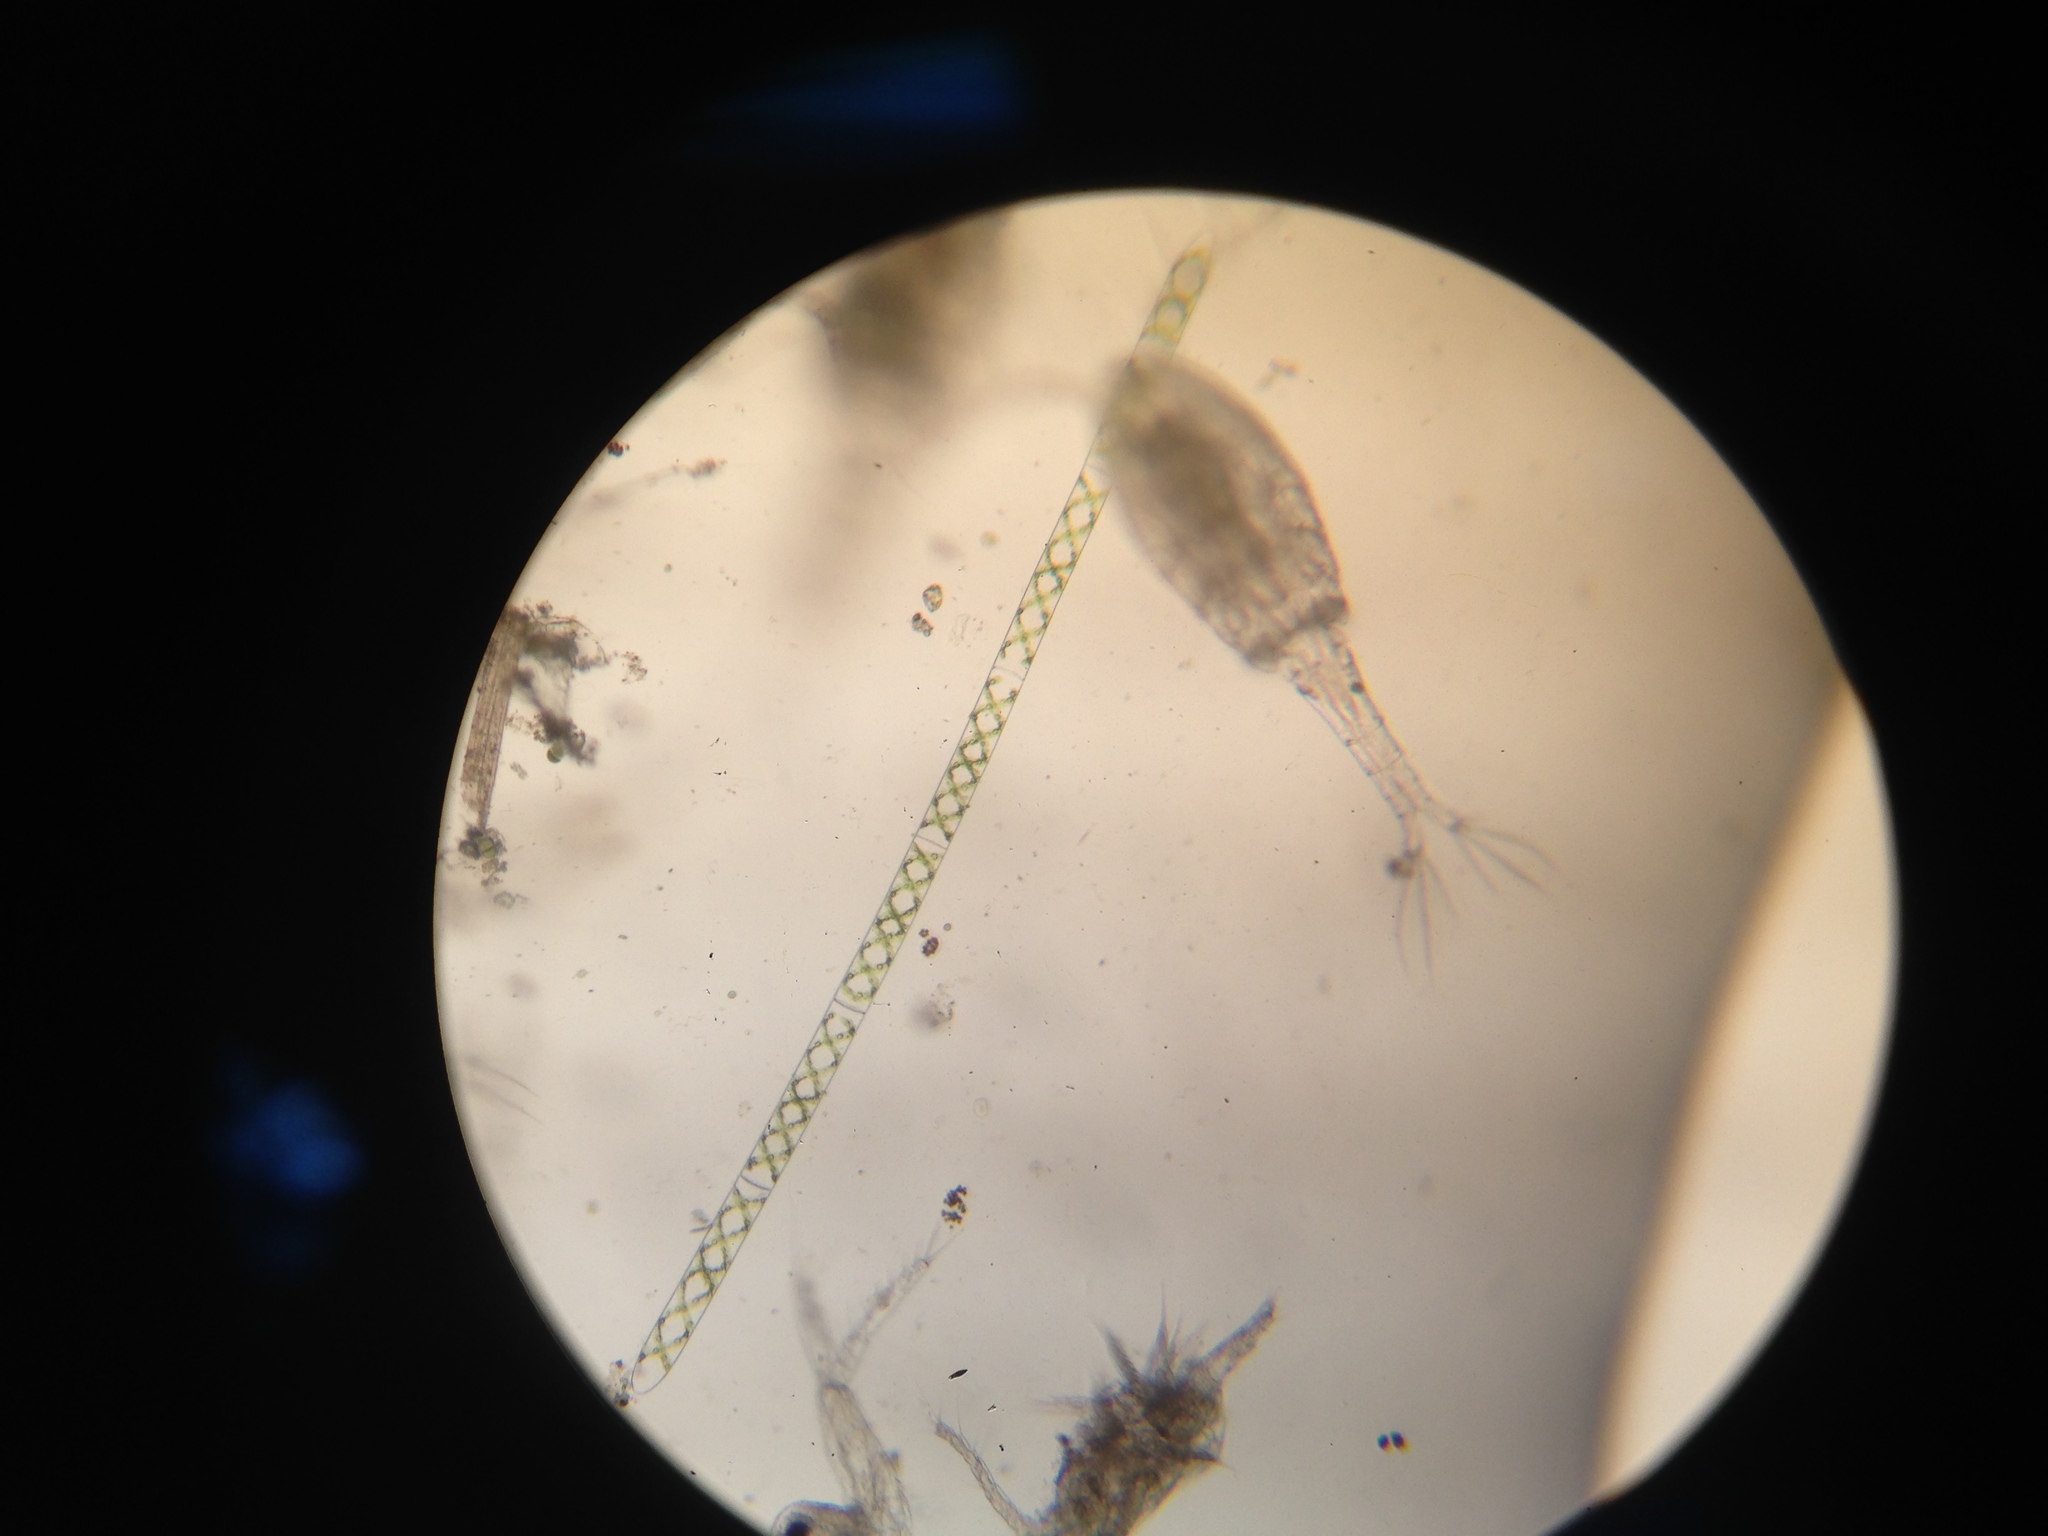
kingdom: Plantae
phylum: Charophyta
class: Zygnematophyceae
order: Zygnematales
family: Zygnemataceae
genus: Spirogyra
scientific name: Spirogyra
